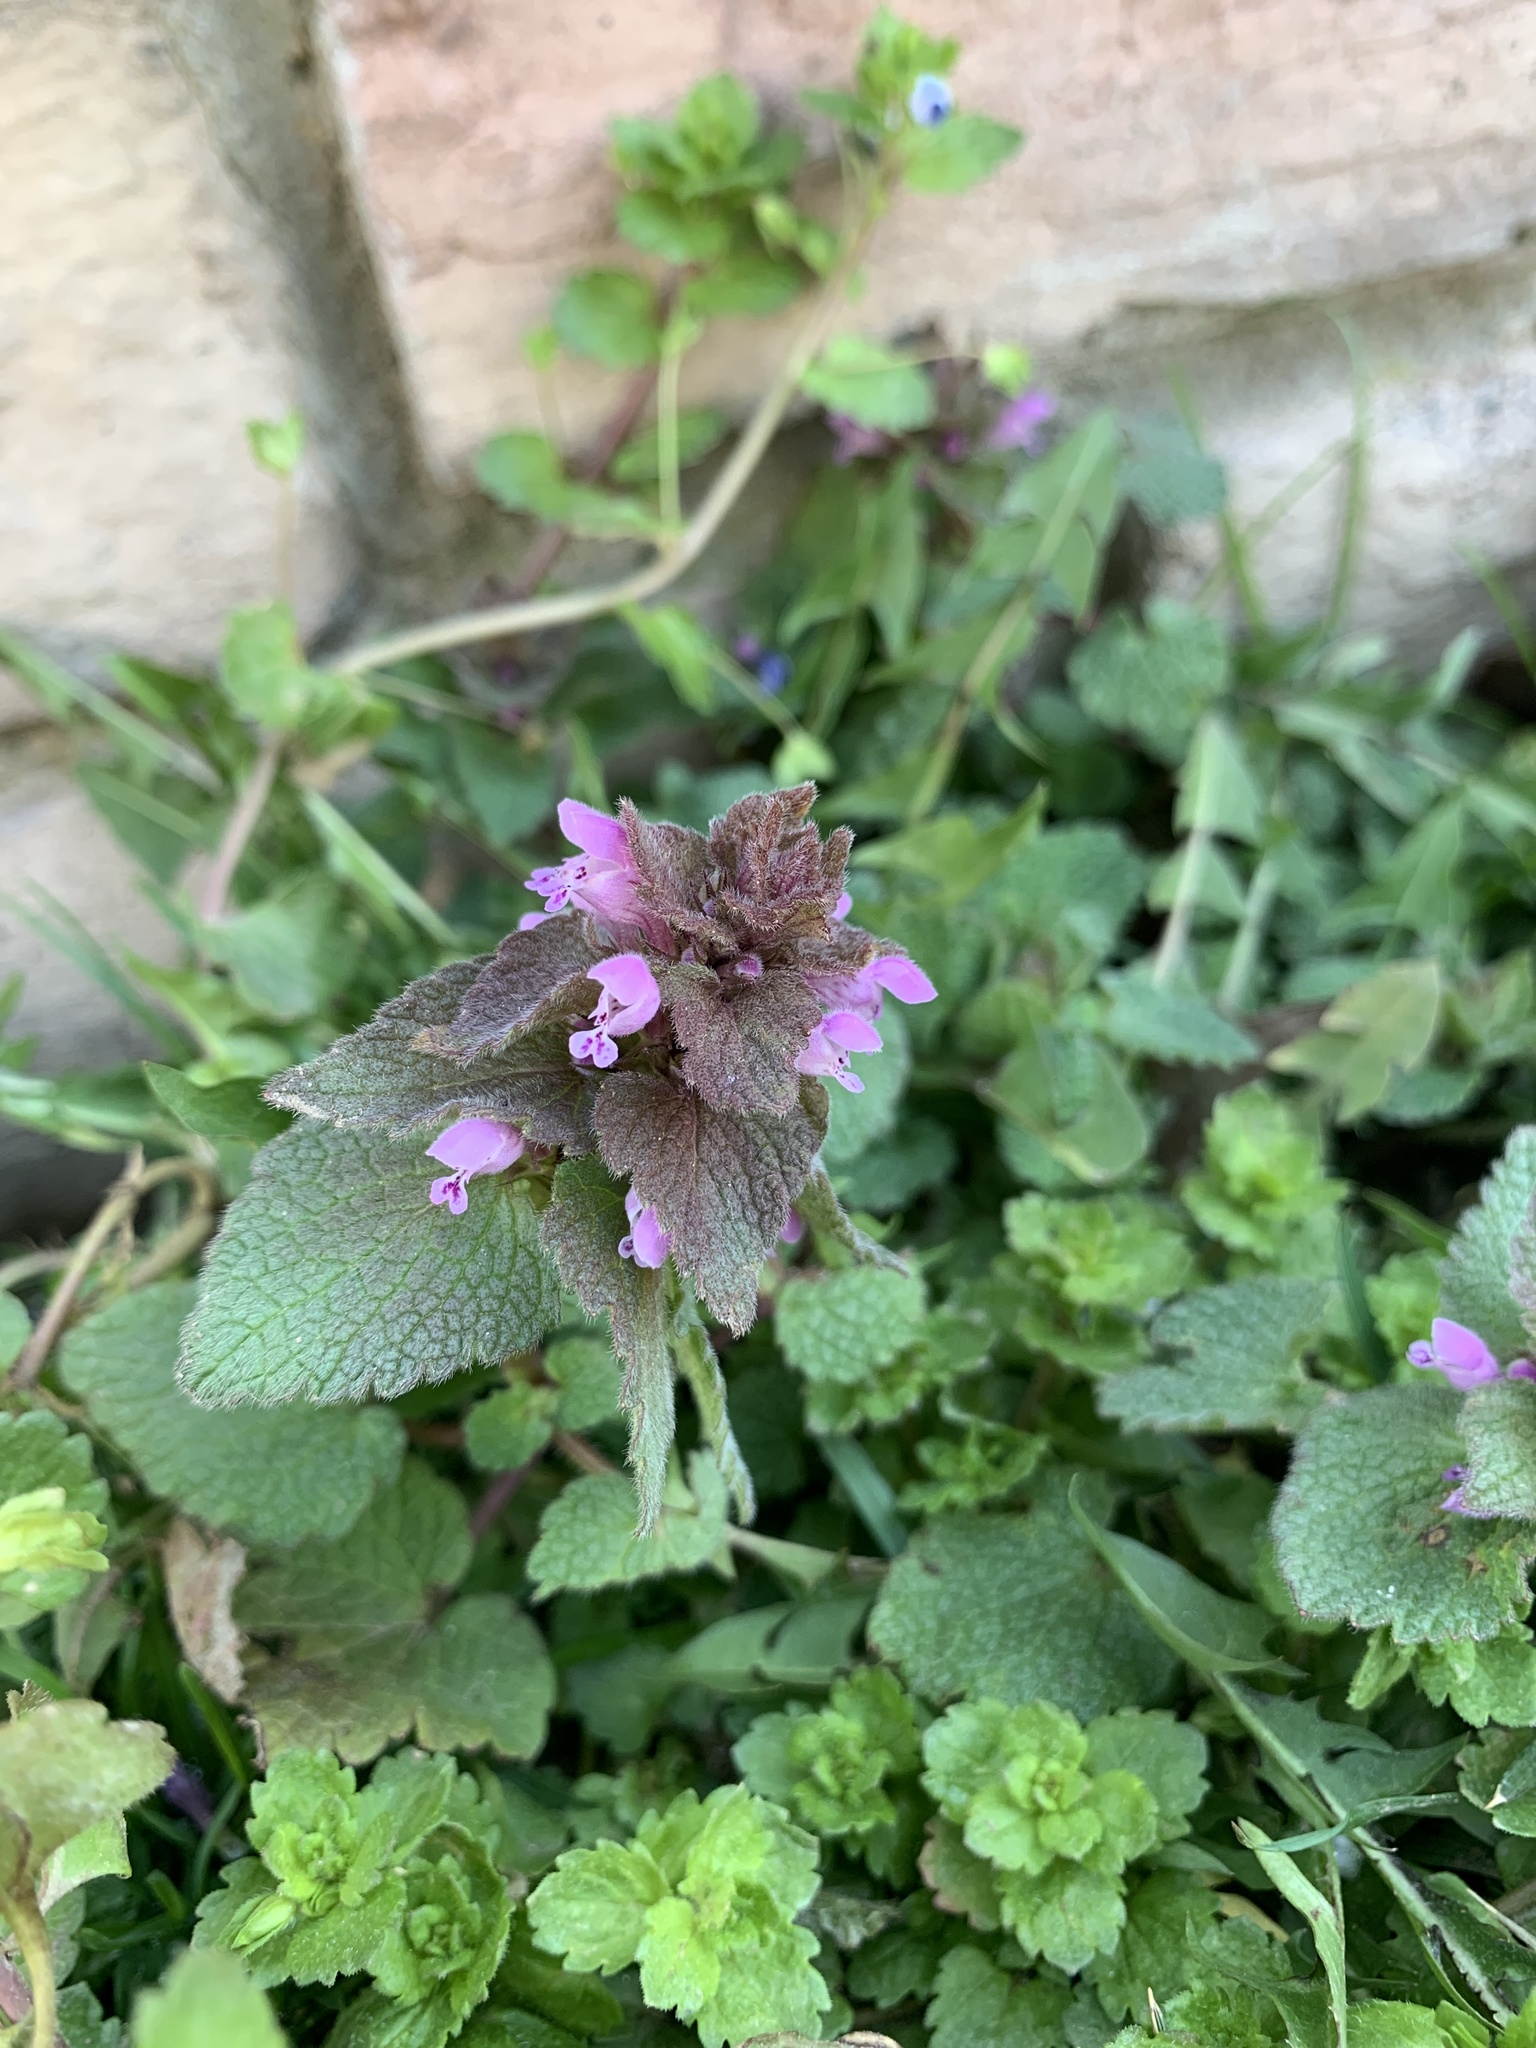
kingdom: Plantae
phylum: Tracheophyta
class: Magnoliopsida
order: Lamiales
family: Lamiaceae
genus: Lamium
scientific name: Lamium purpureum
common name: Red dead-nettle
